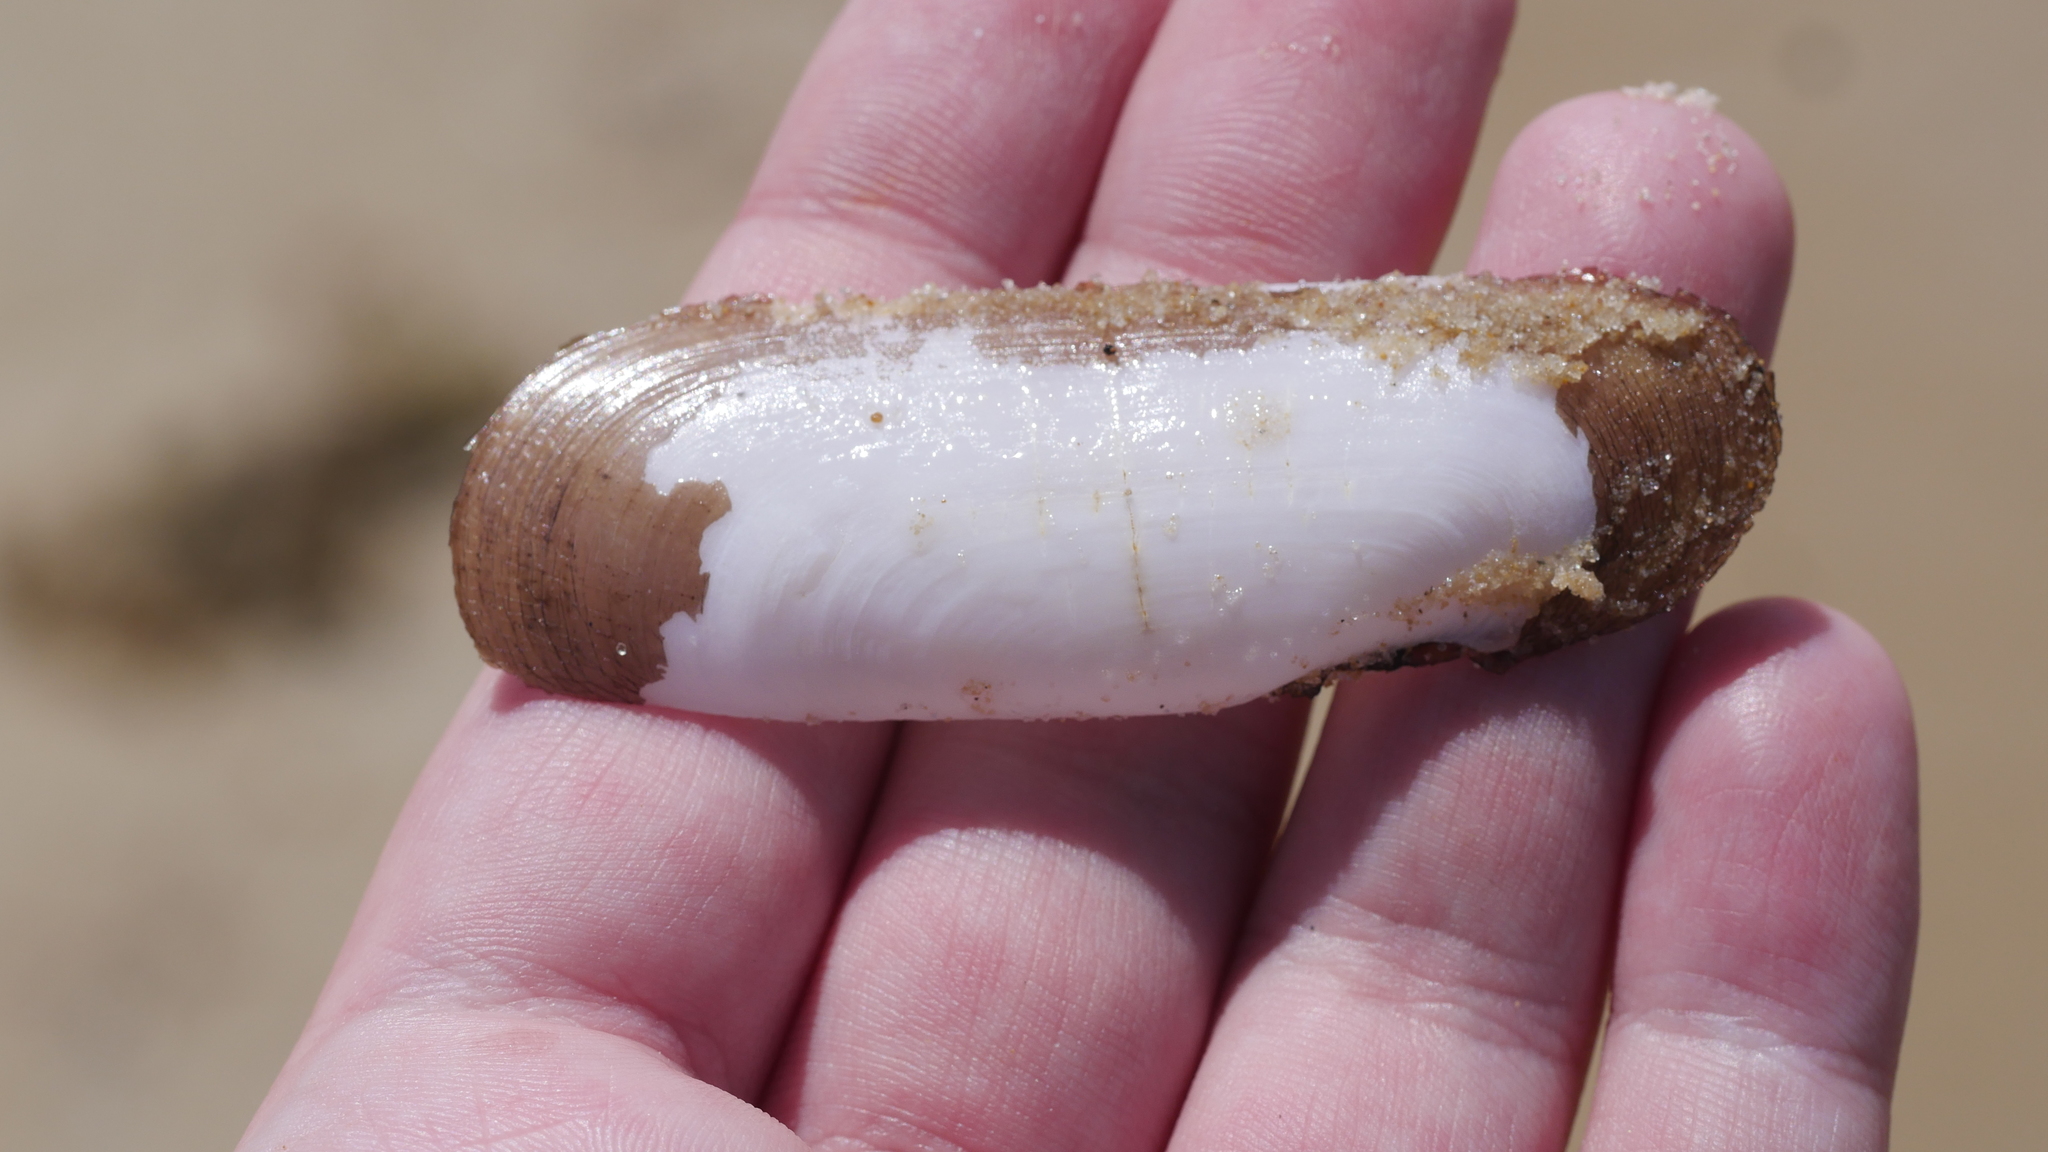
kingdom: Animalia
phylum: Mollusca
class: Bivalvia
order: Cardiida
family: Solecurtidae
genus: Tagelus
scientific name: Tagelus plebeius
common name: Stout tagelus
